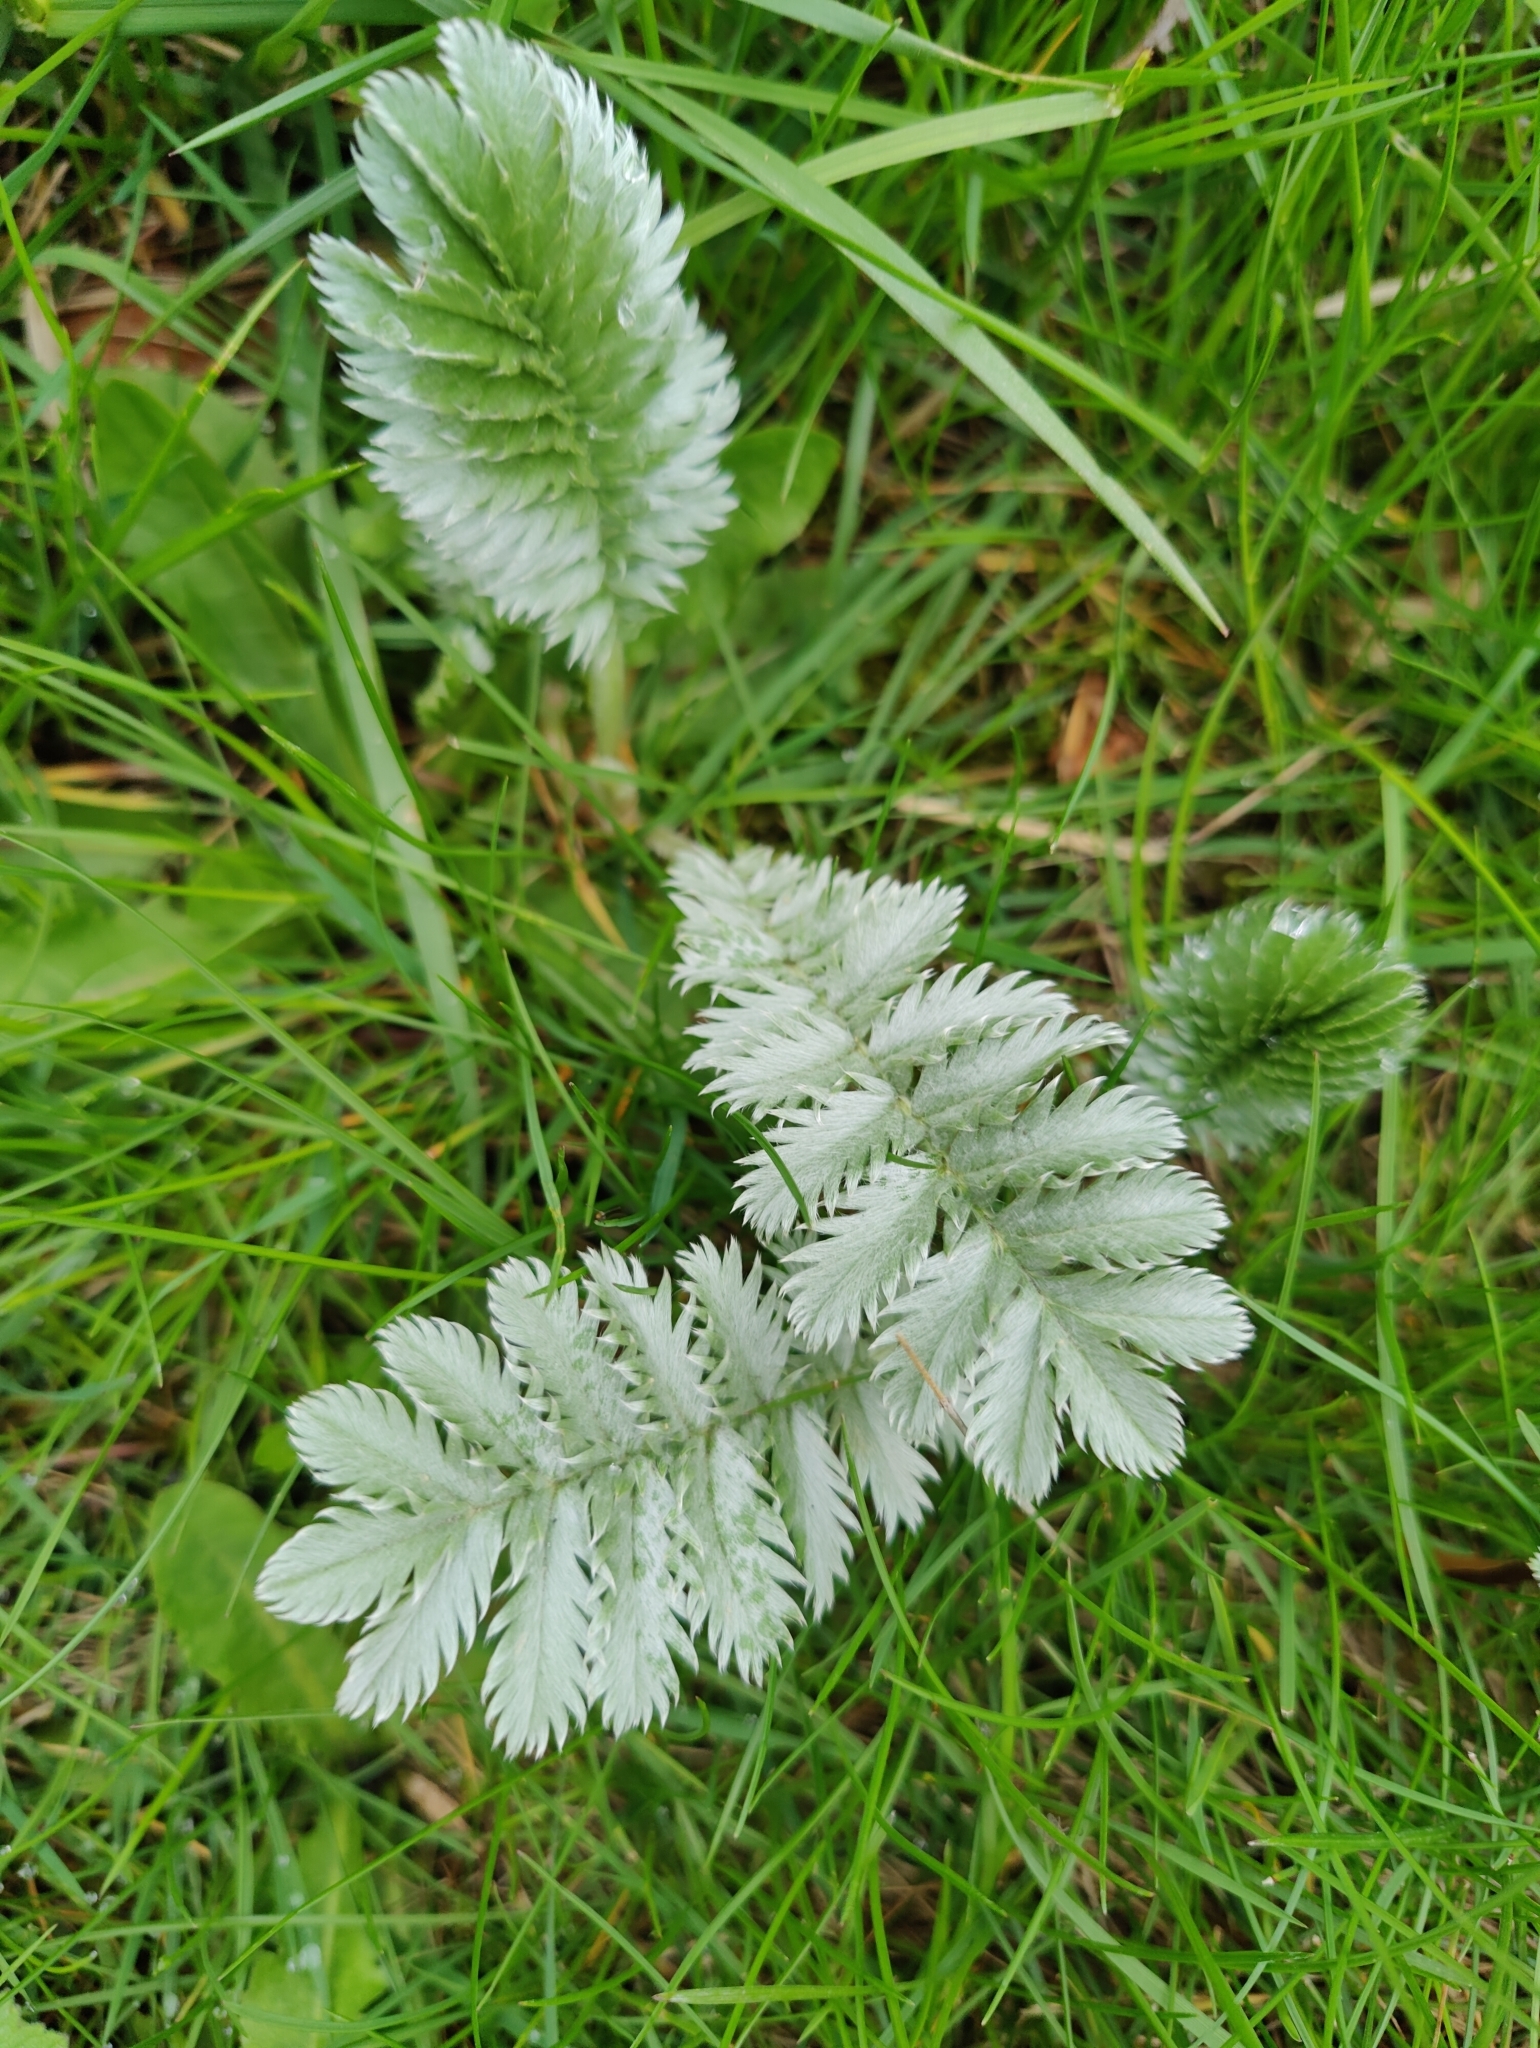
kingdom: Plantae
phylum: Tracheophyta
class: Magnoliopsida
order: Rosales
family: Rosaceae
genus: Argentina
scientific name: Argentina anserina
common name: Common silverweed
